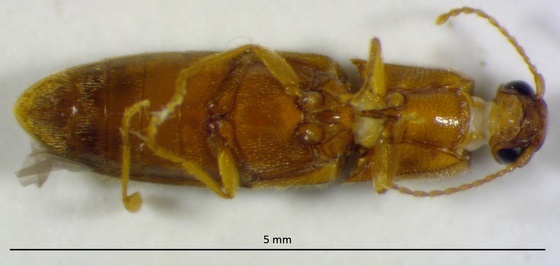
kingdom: Animalia
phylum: Arthropoda
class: Insecta
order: Coleoptera
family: Elateridae
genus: Glyphonyx
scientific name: Glyphonyx
